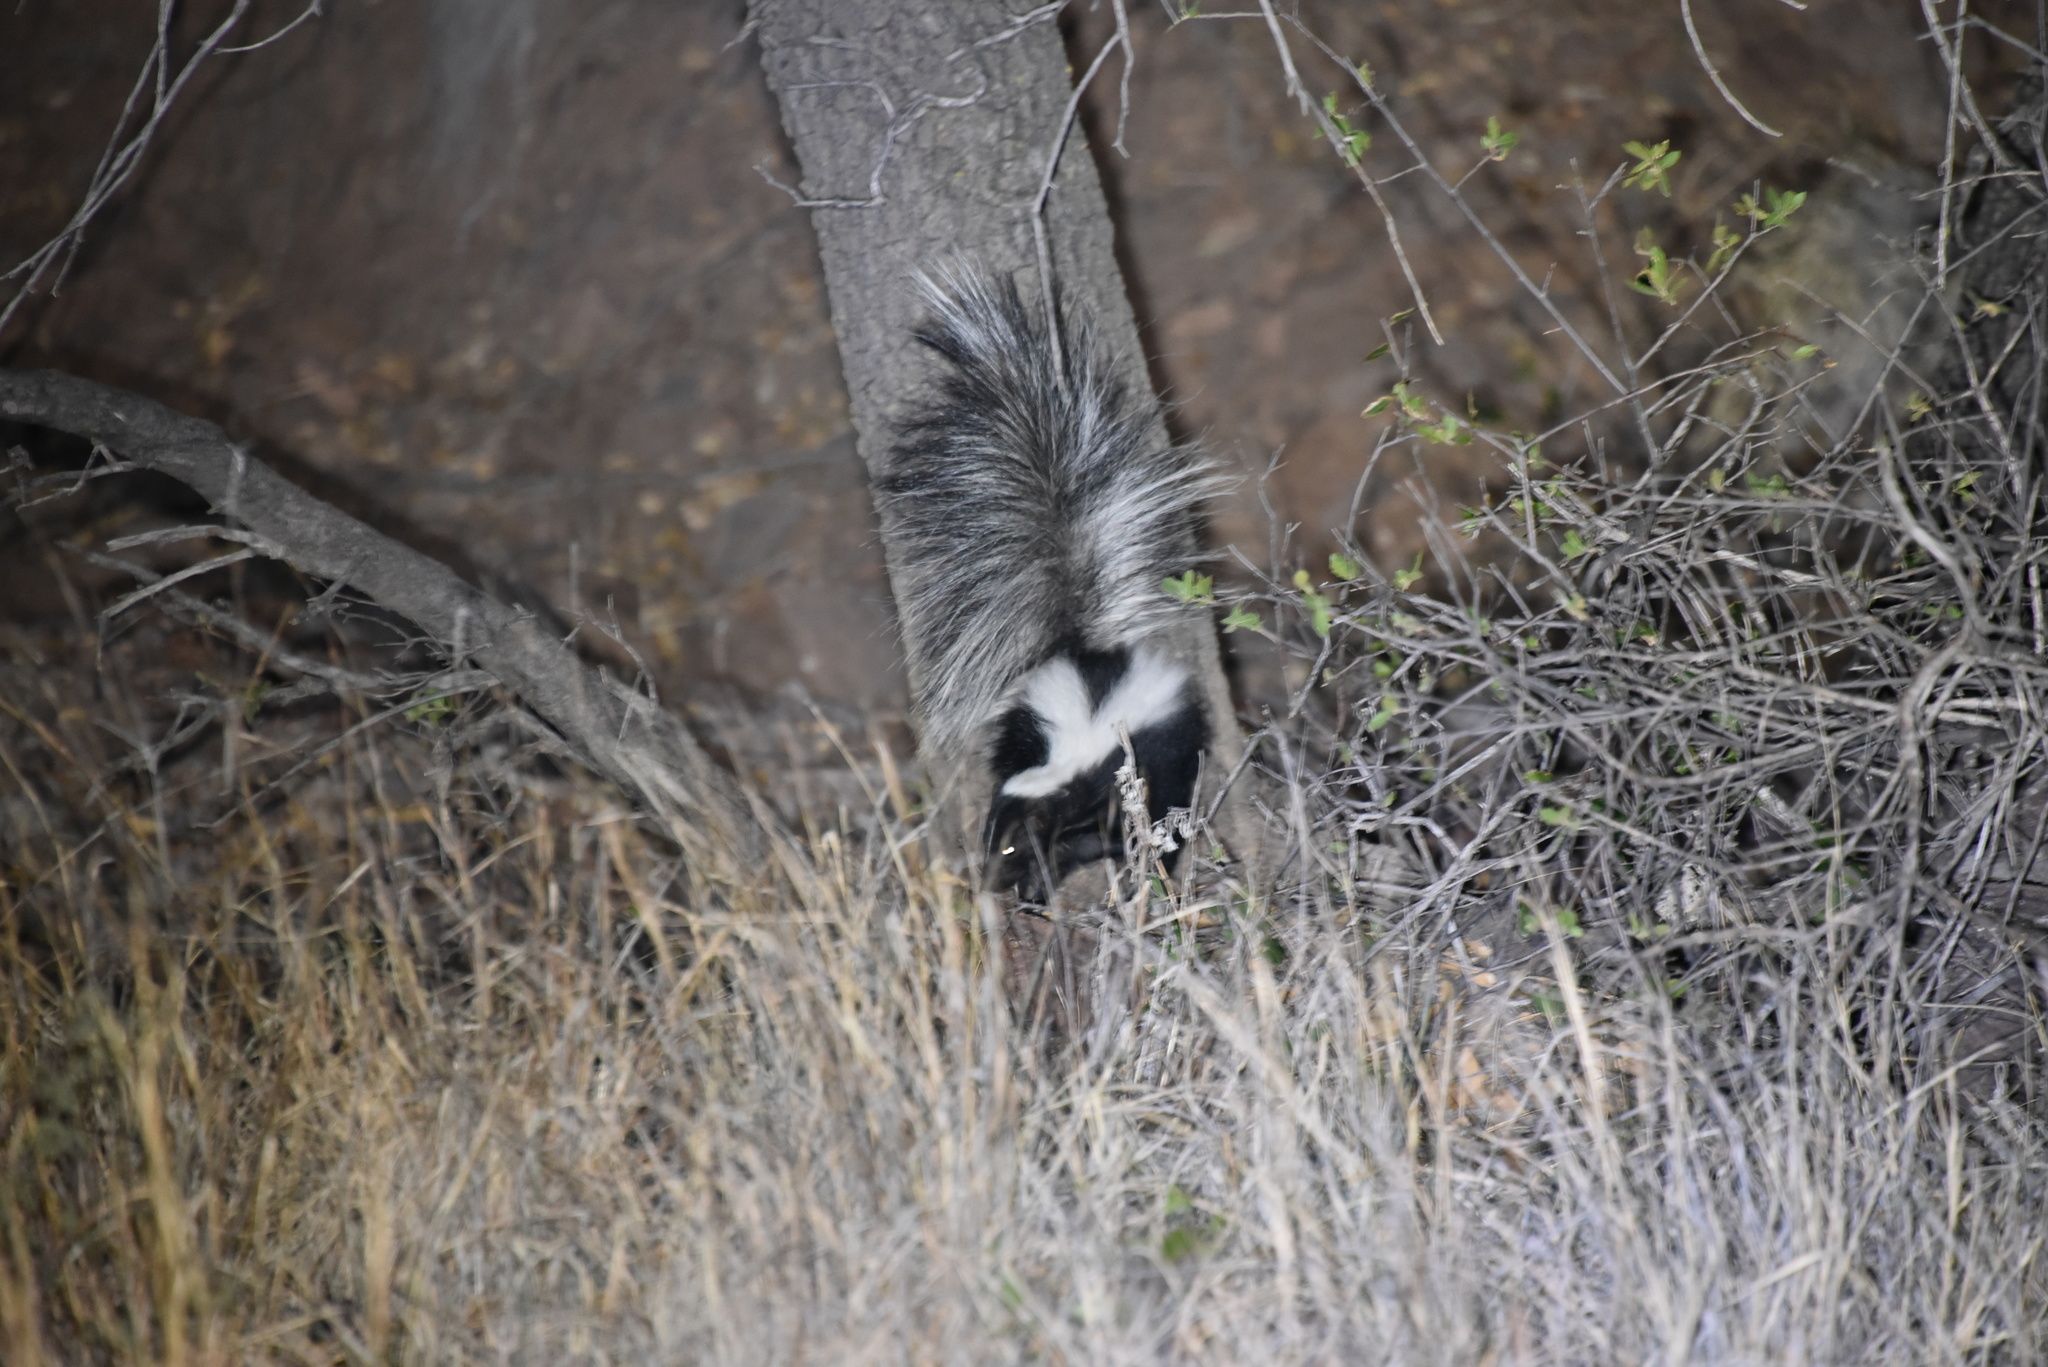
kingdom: Animalia
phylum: Chordata
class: Mammalia
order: Carnivora
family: Mephitidae
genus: Mephitis
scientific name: Mephitis mephitis
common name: Striped skunk
